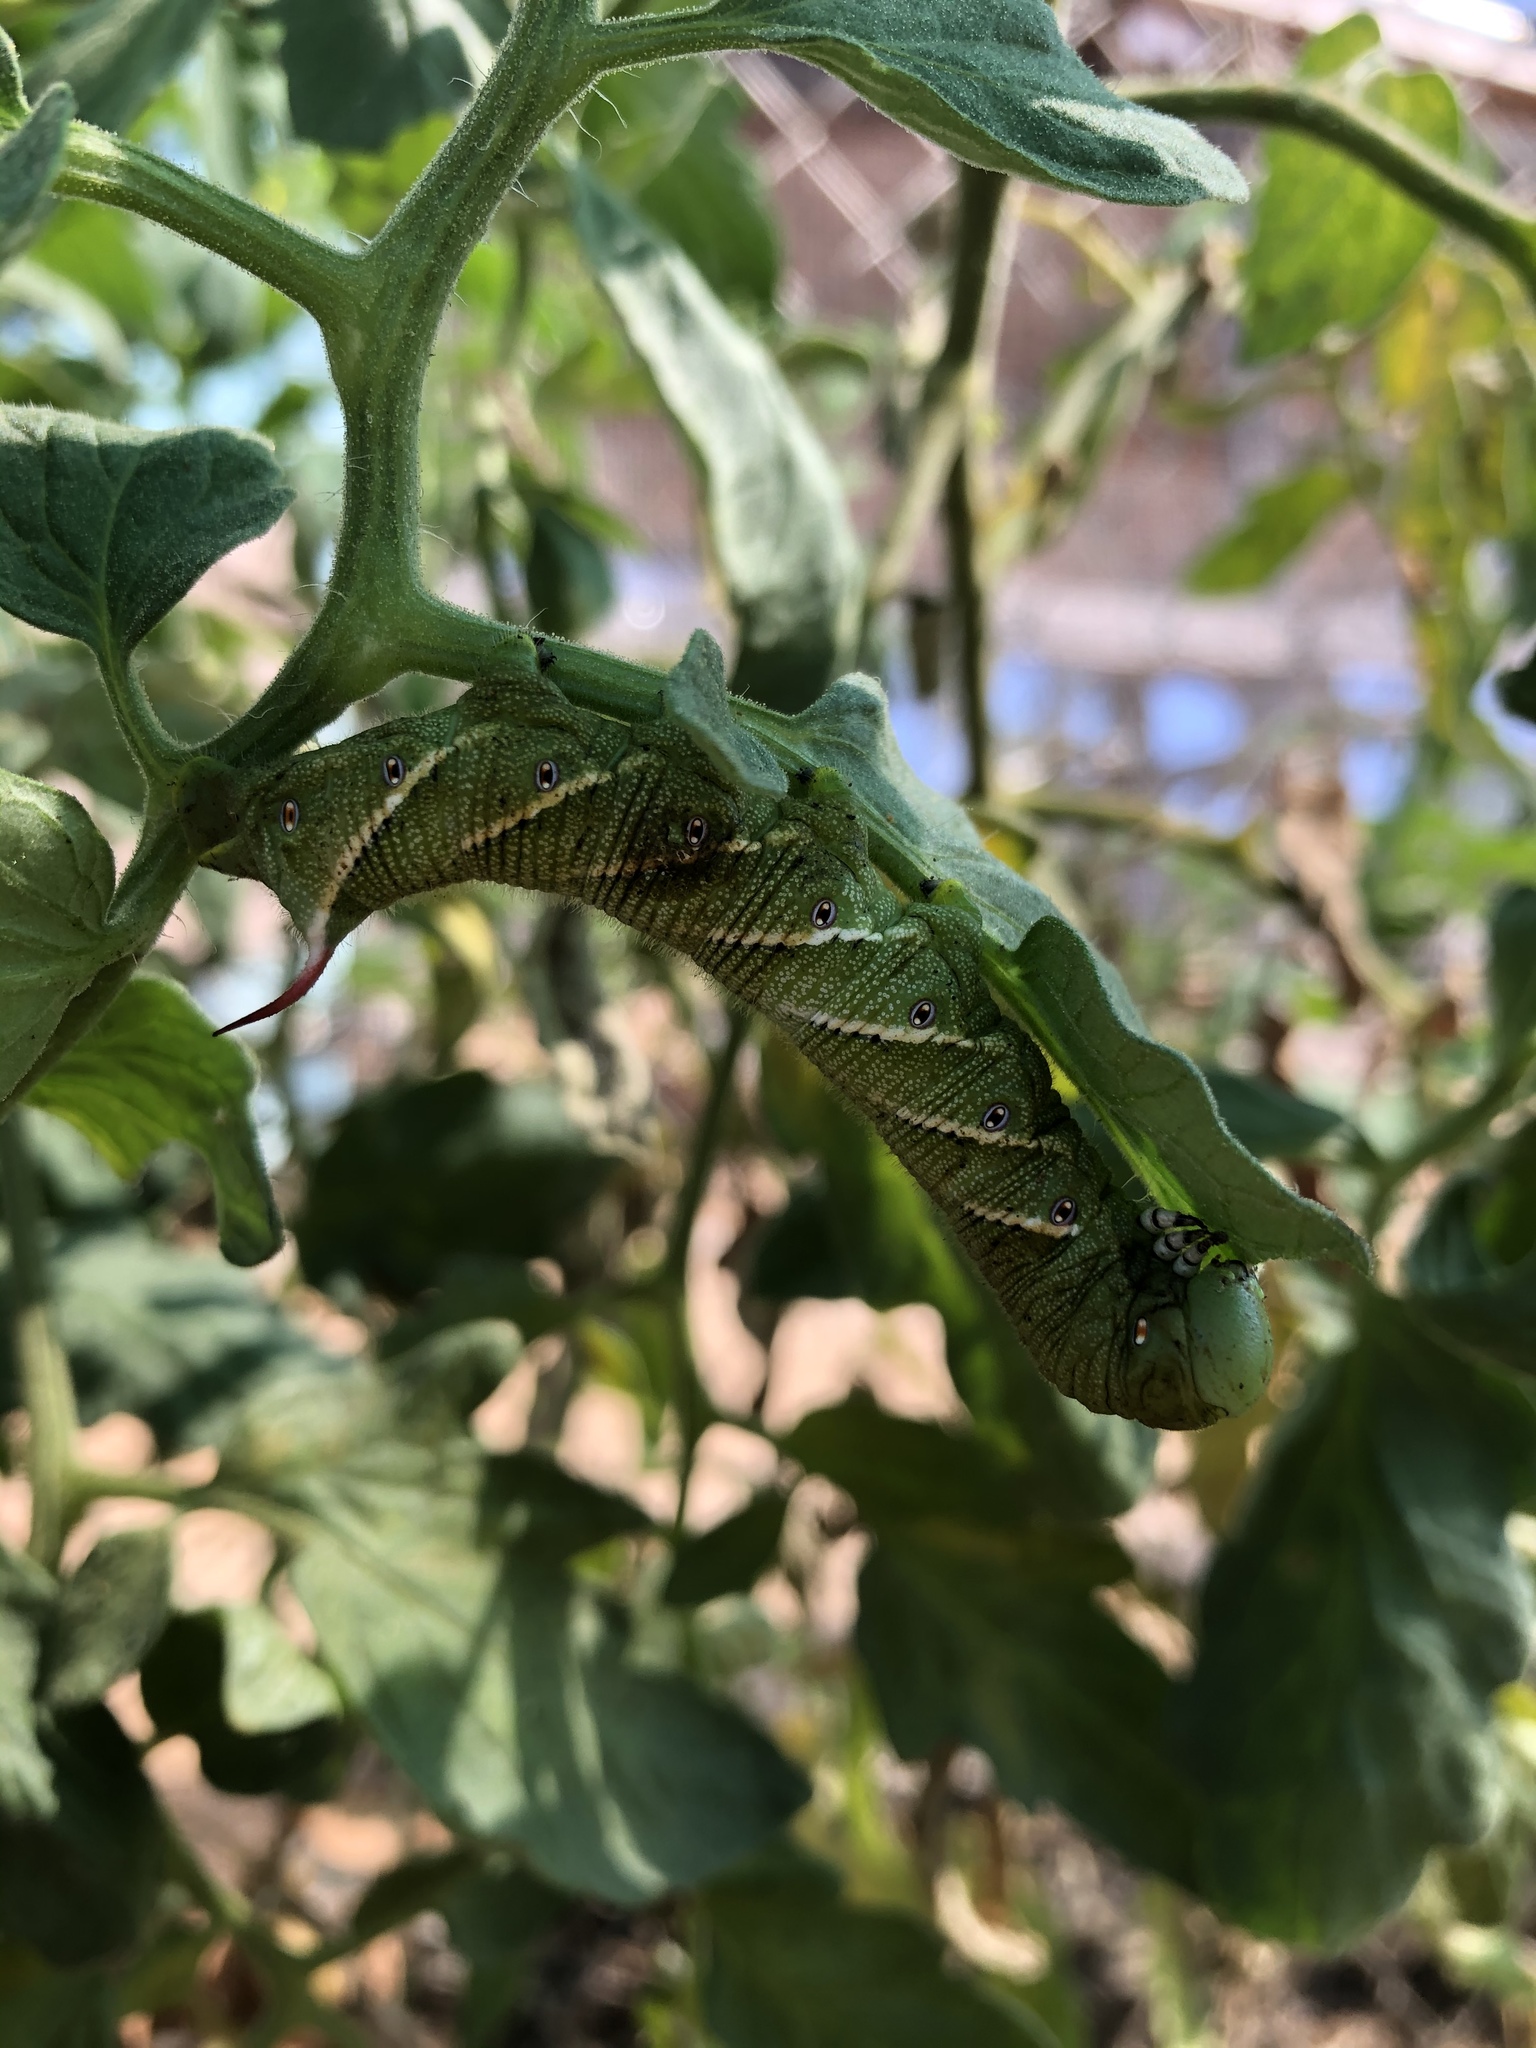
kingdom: Animalia
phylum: Arthropoda
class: Insecta
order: Lepidoptera
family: Sphingidae
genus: Manduca
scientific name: Manduca sexta
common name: Carolina sphinx
